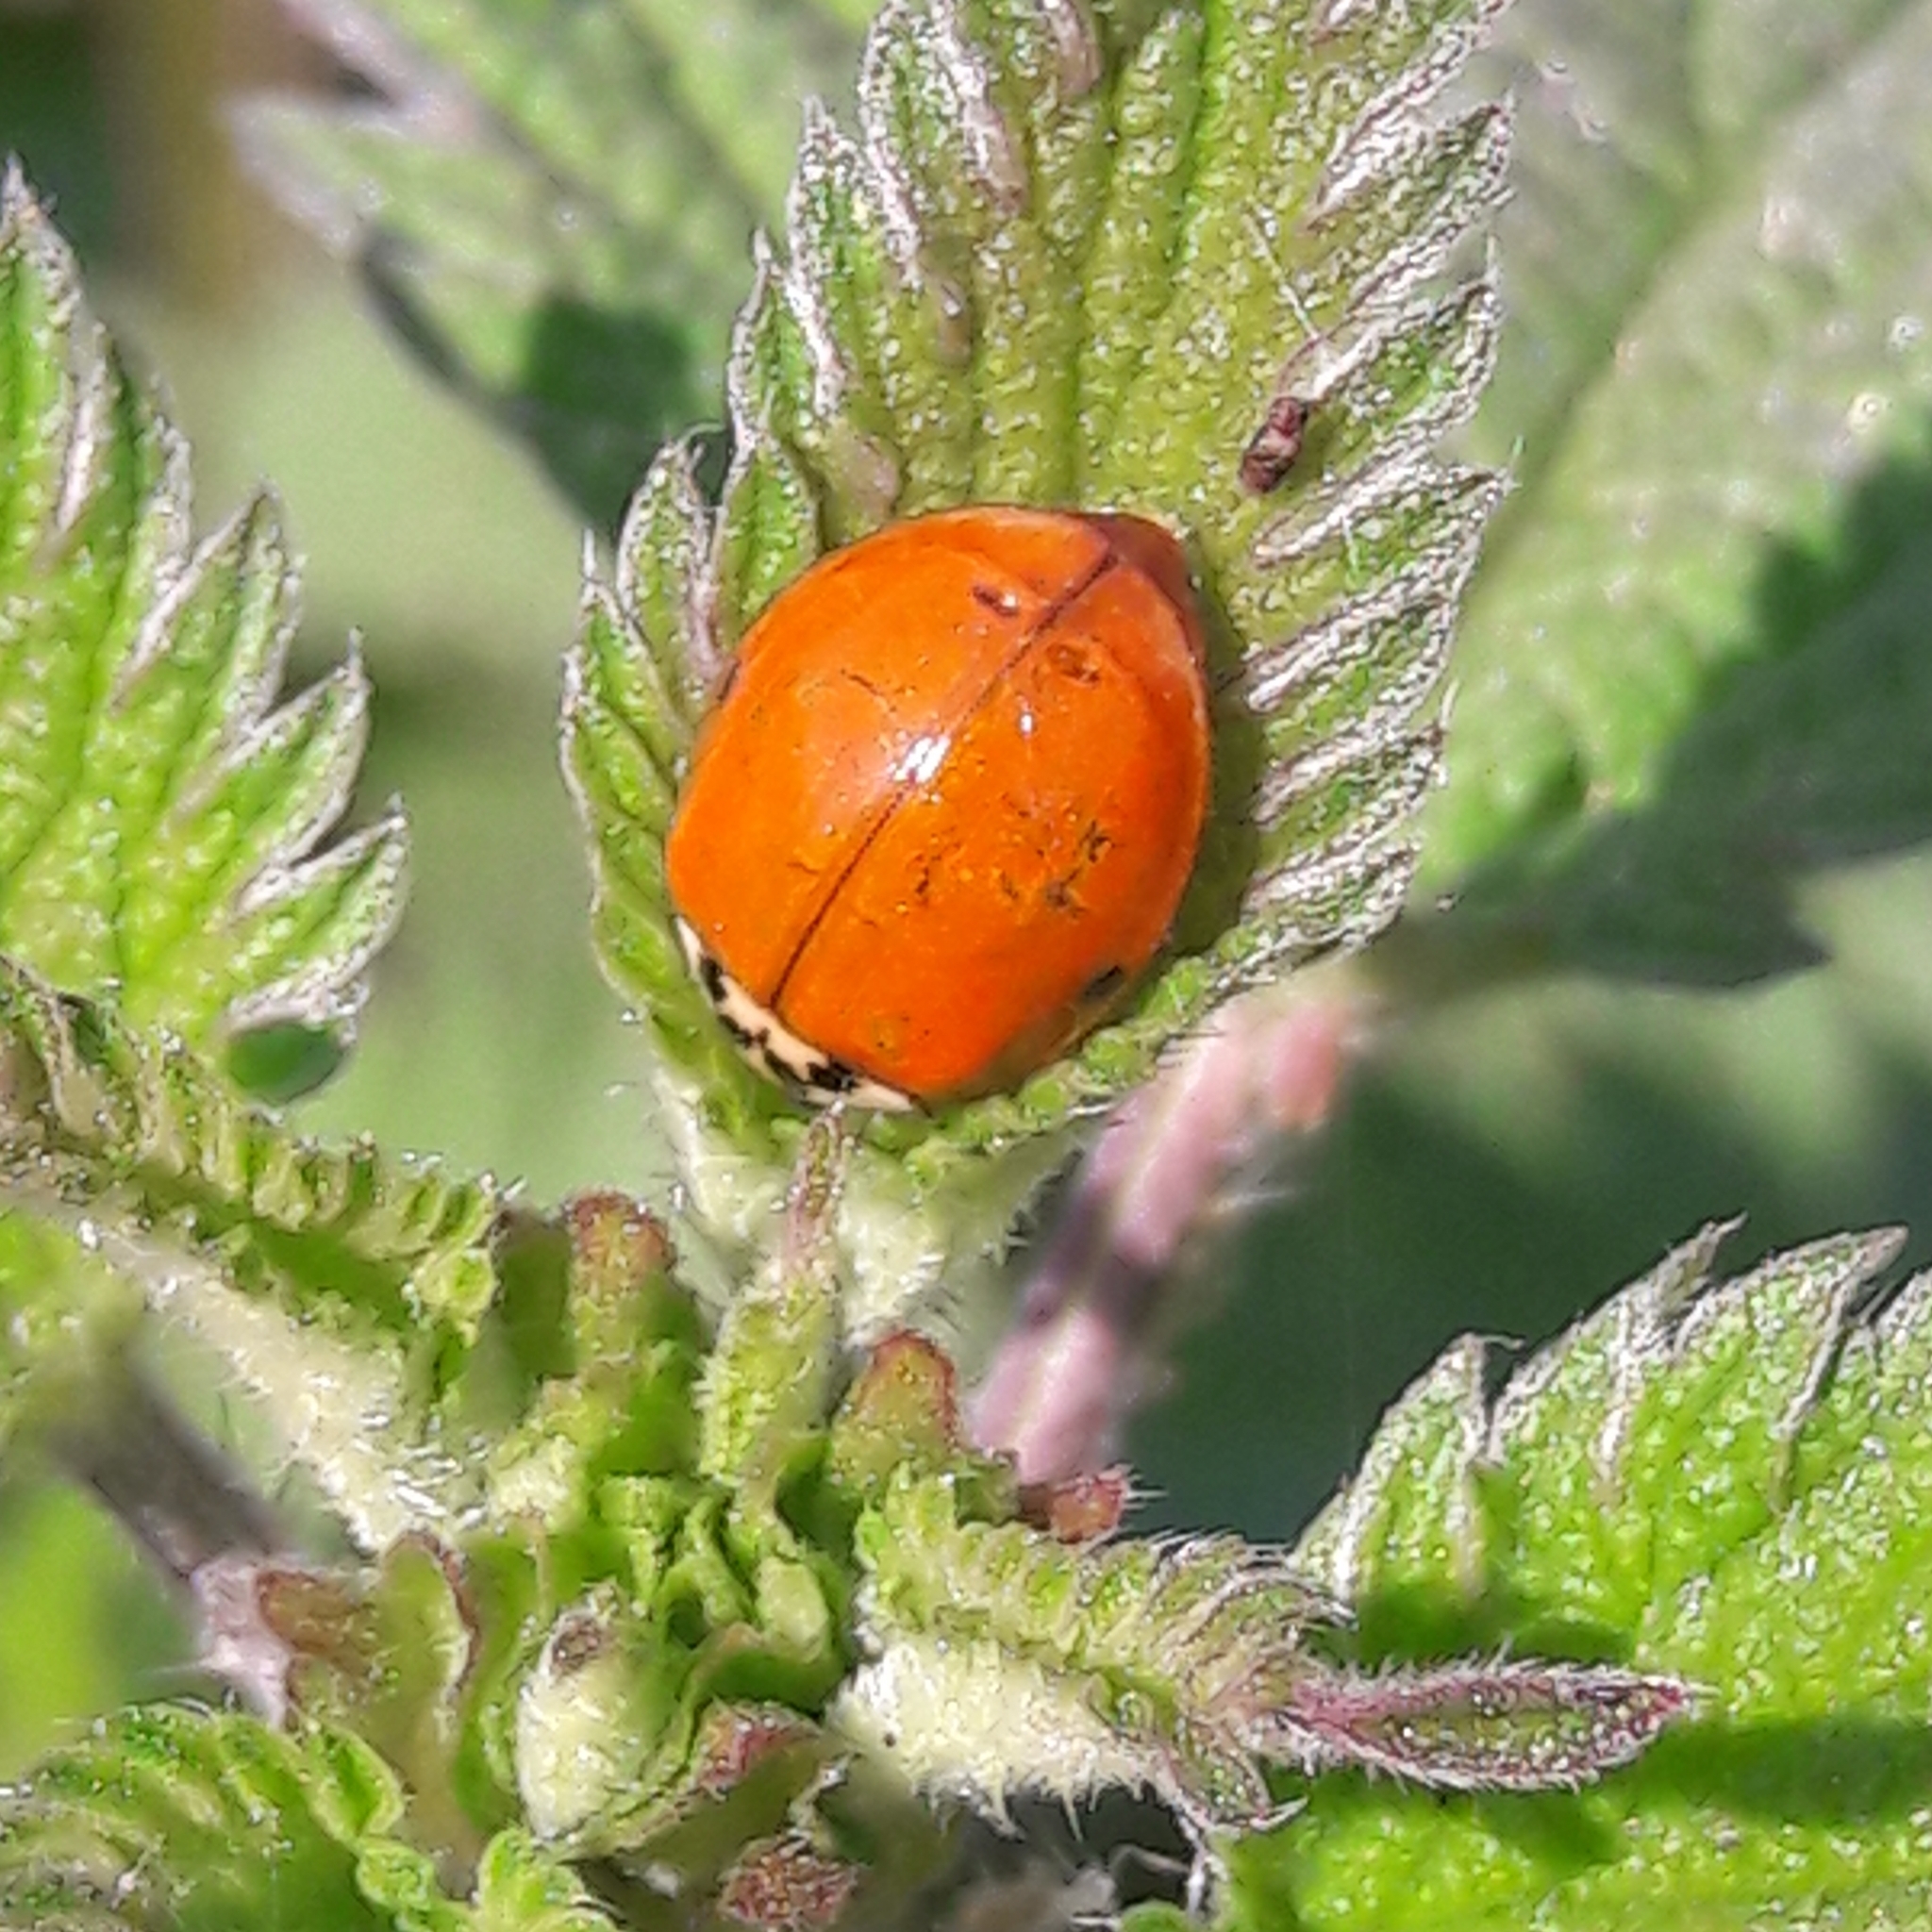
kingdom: Animalia
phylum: Arthropoda
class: Insecta
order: Coleoptera
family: Coccinellidae
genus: Harmonia
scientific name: Harmonia axyridis
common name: Harlequin ladybird
